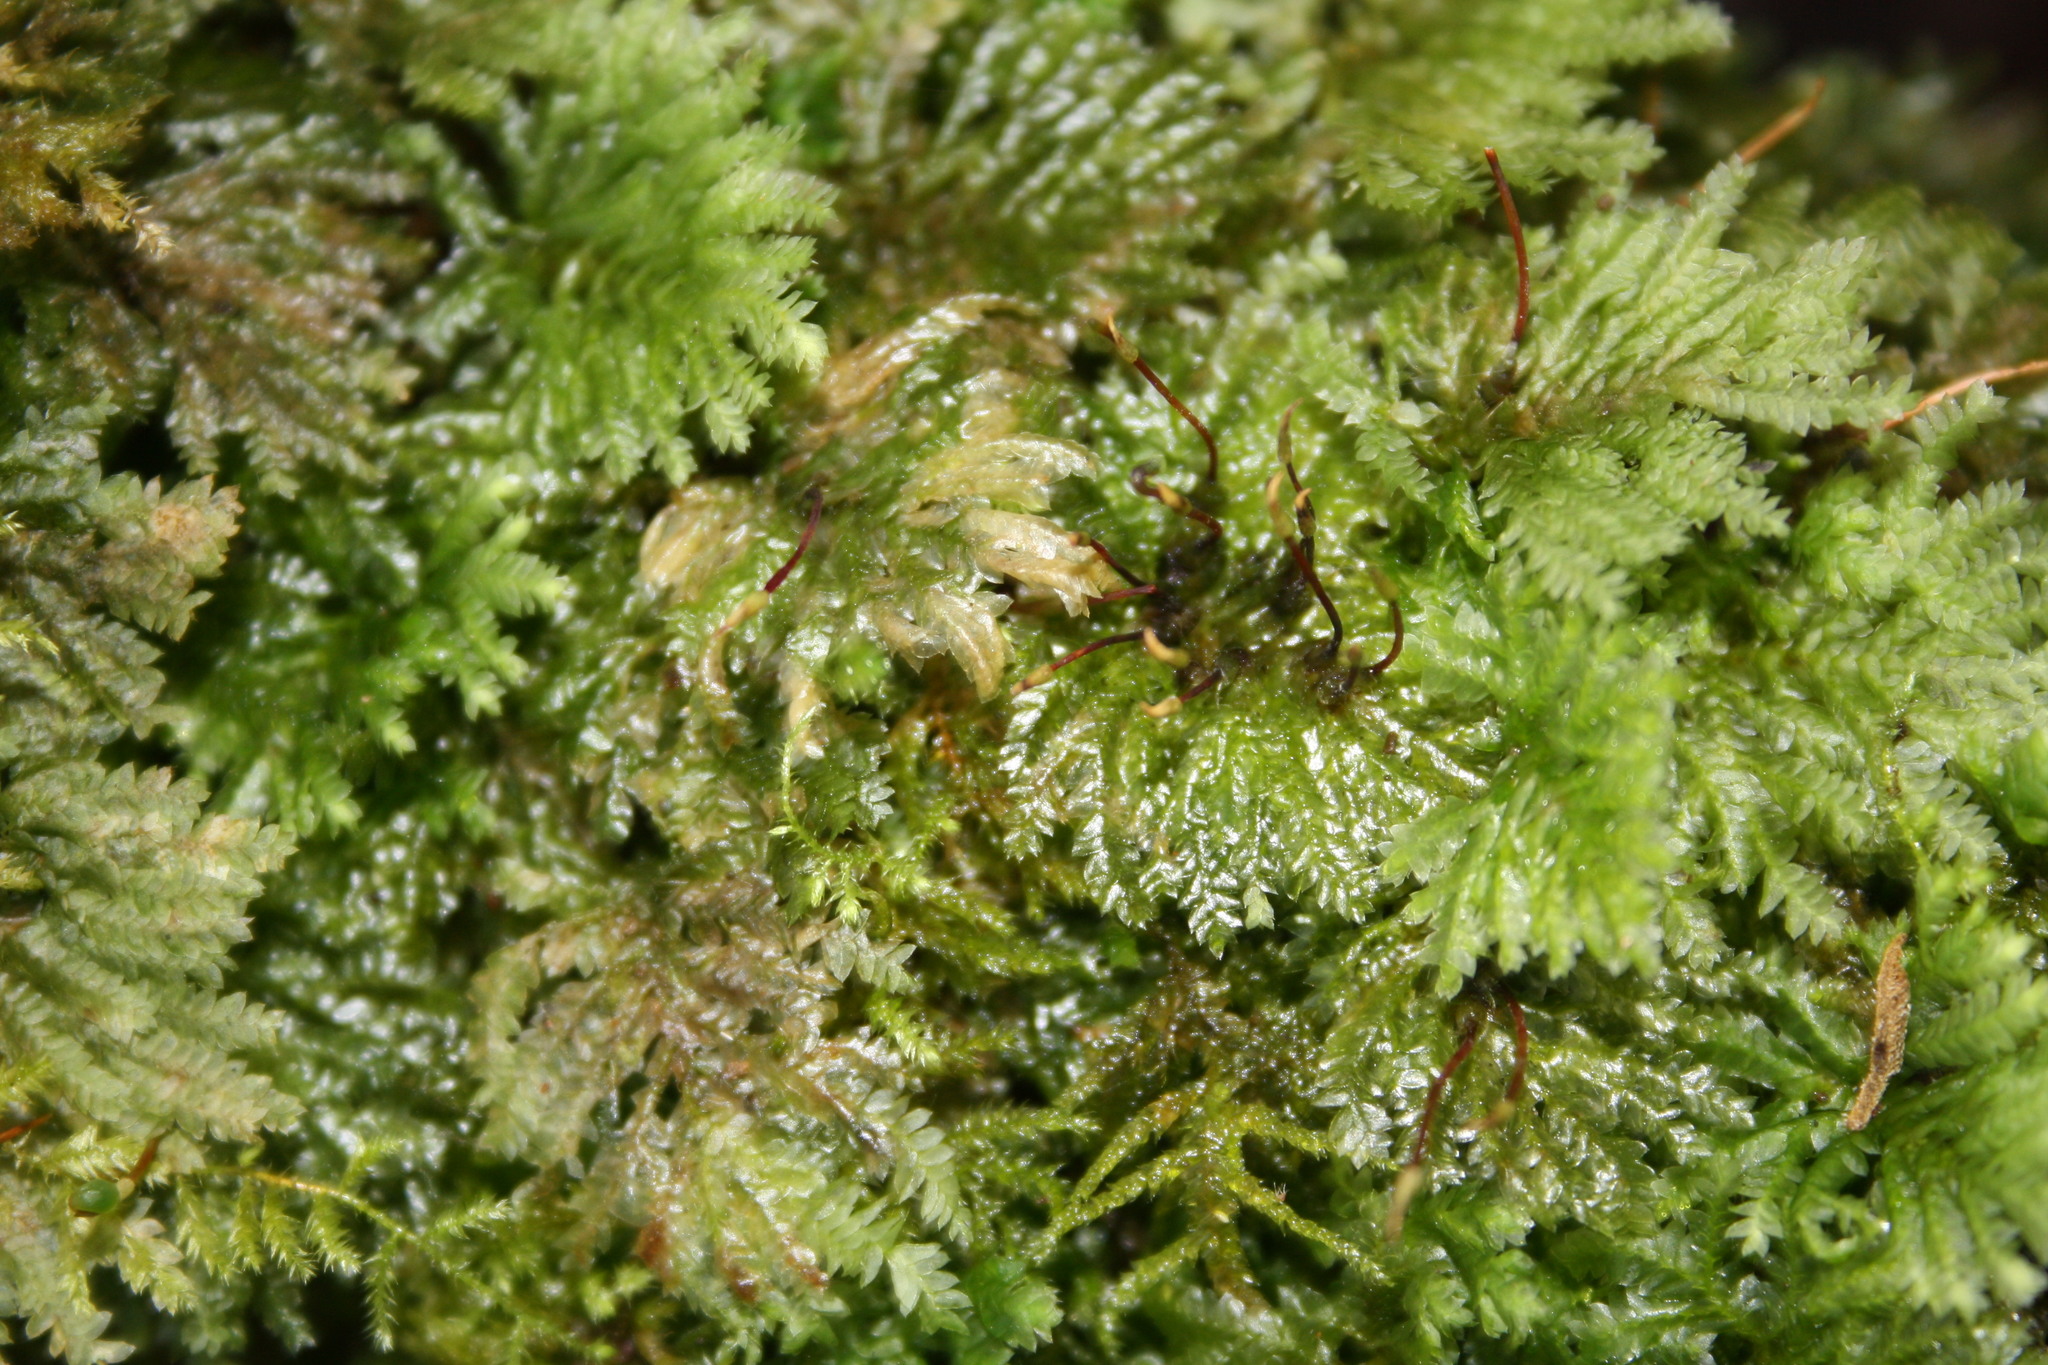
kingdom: Plantae
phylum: Bryophyta
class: Bryopsida
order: Hypopterygiales
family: Hypopterygiaceae
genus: Hypopterygium
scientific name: Hypopterygium tamarisci
